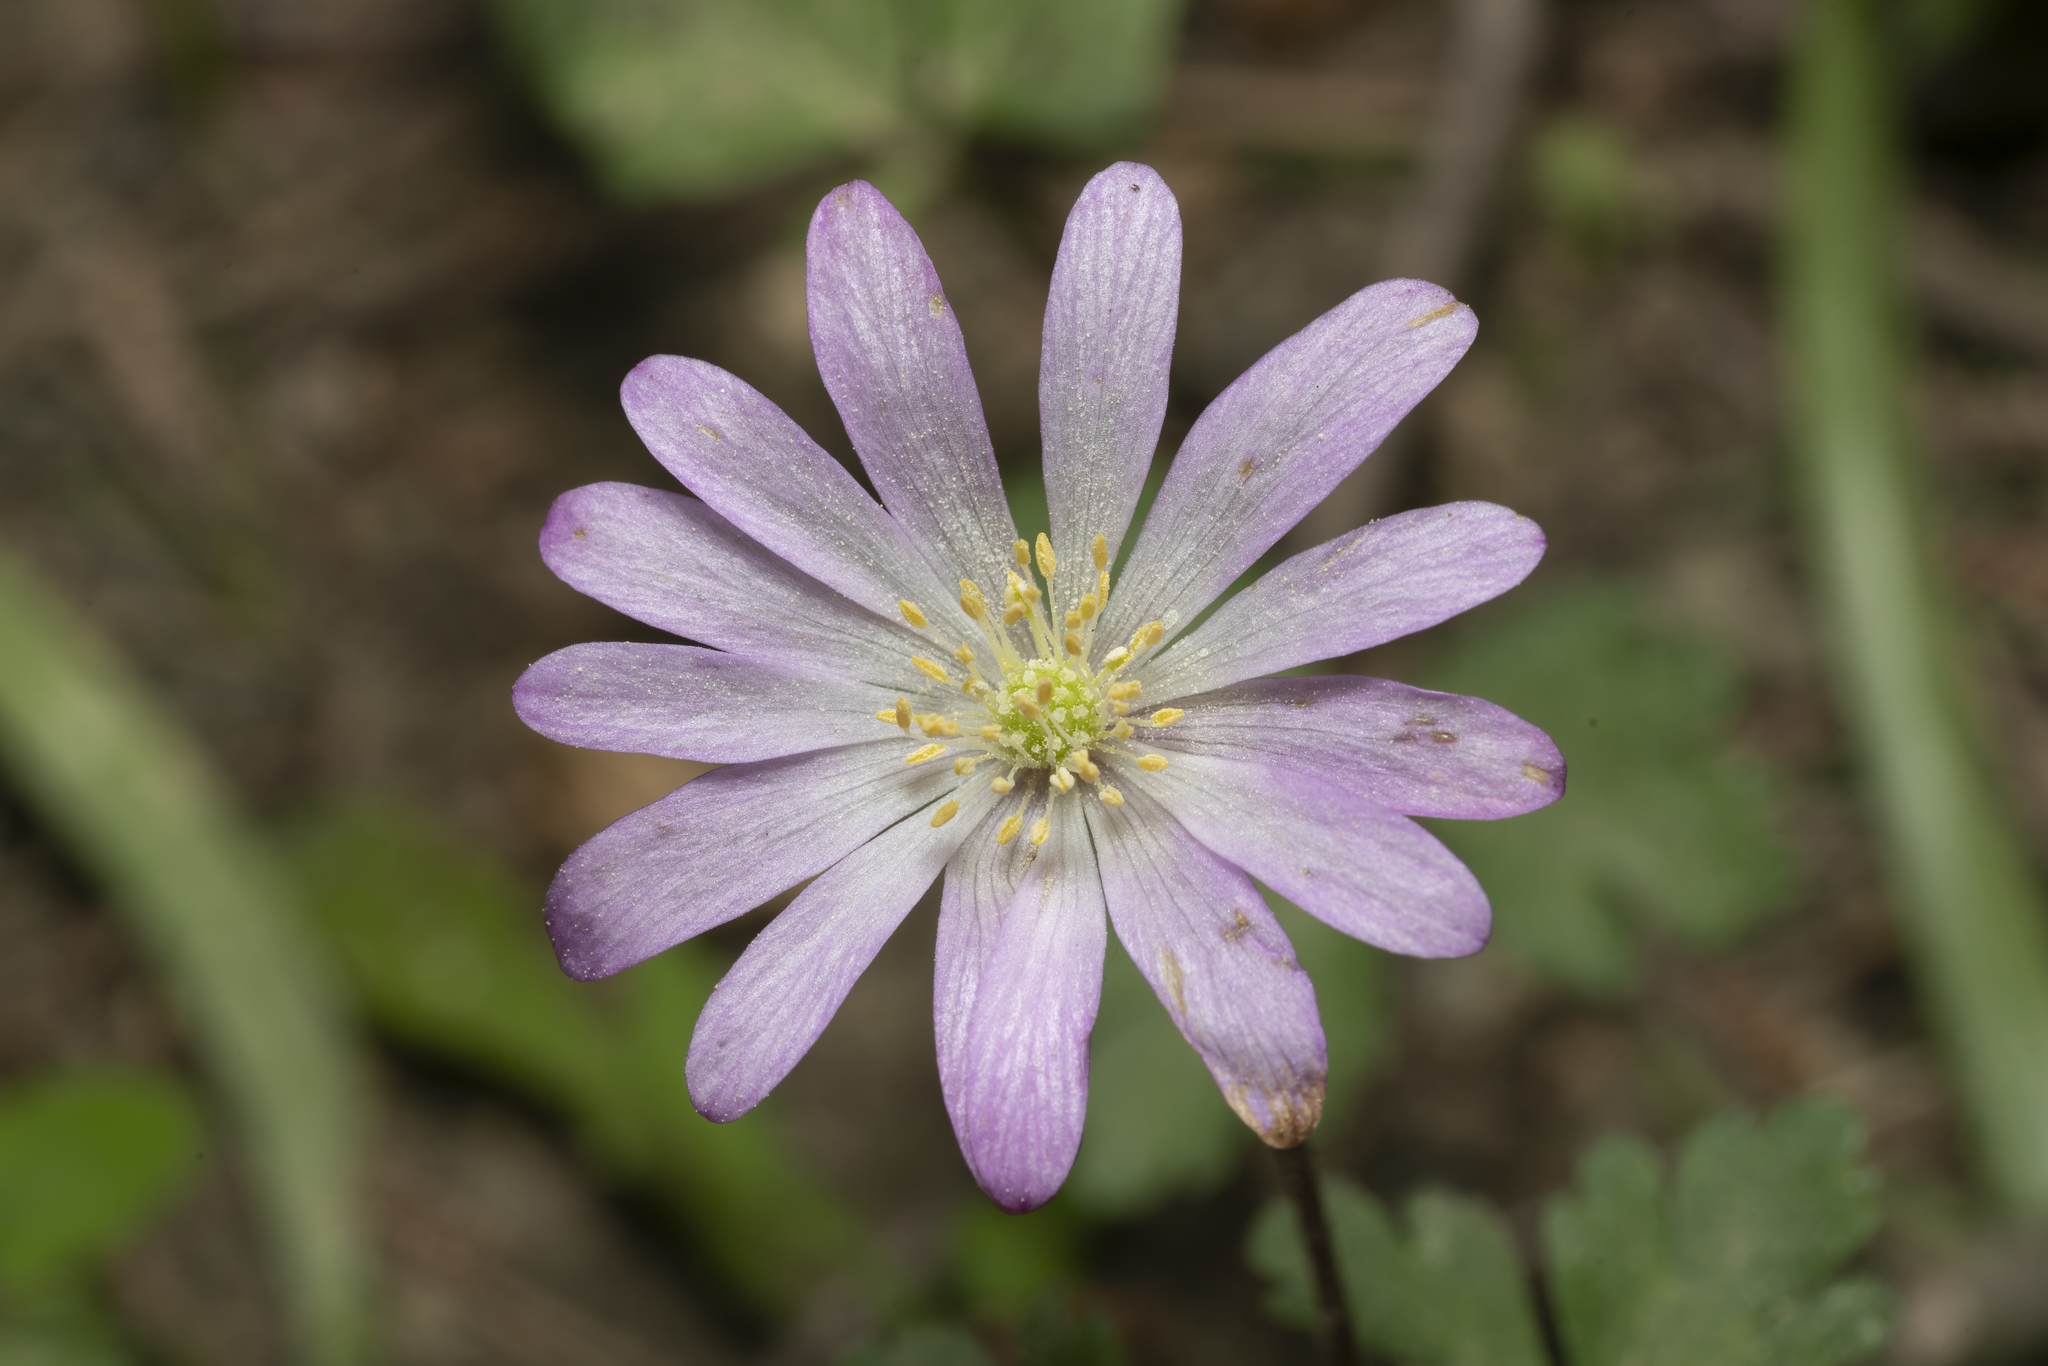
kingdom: Plantae
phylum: Tracheophyta
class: Magnoliopsida
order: Ranunculales
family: Ranunculaceae
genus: Anemone
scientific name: Anemone blanda
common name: Balkan anemone
